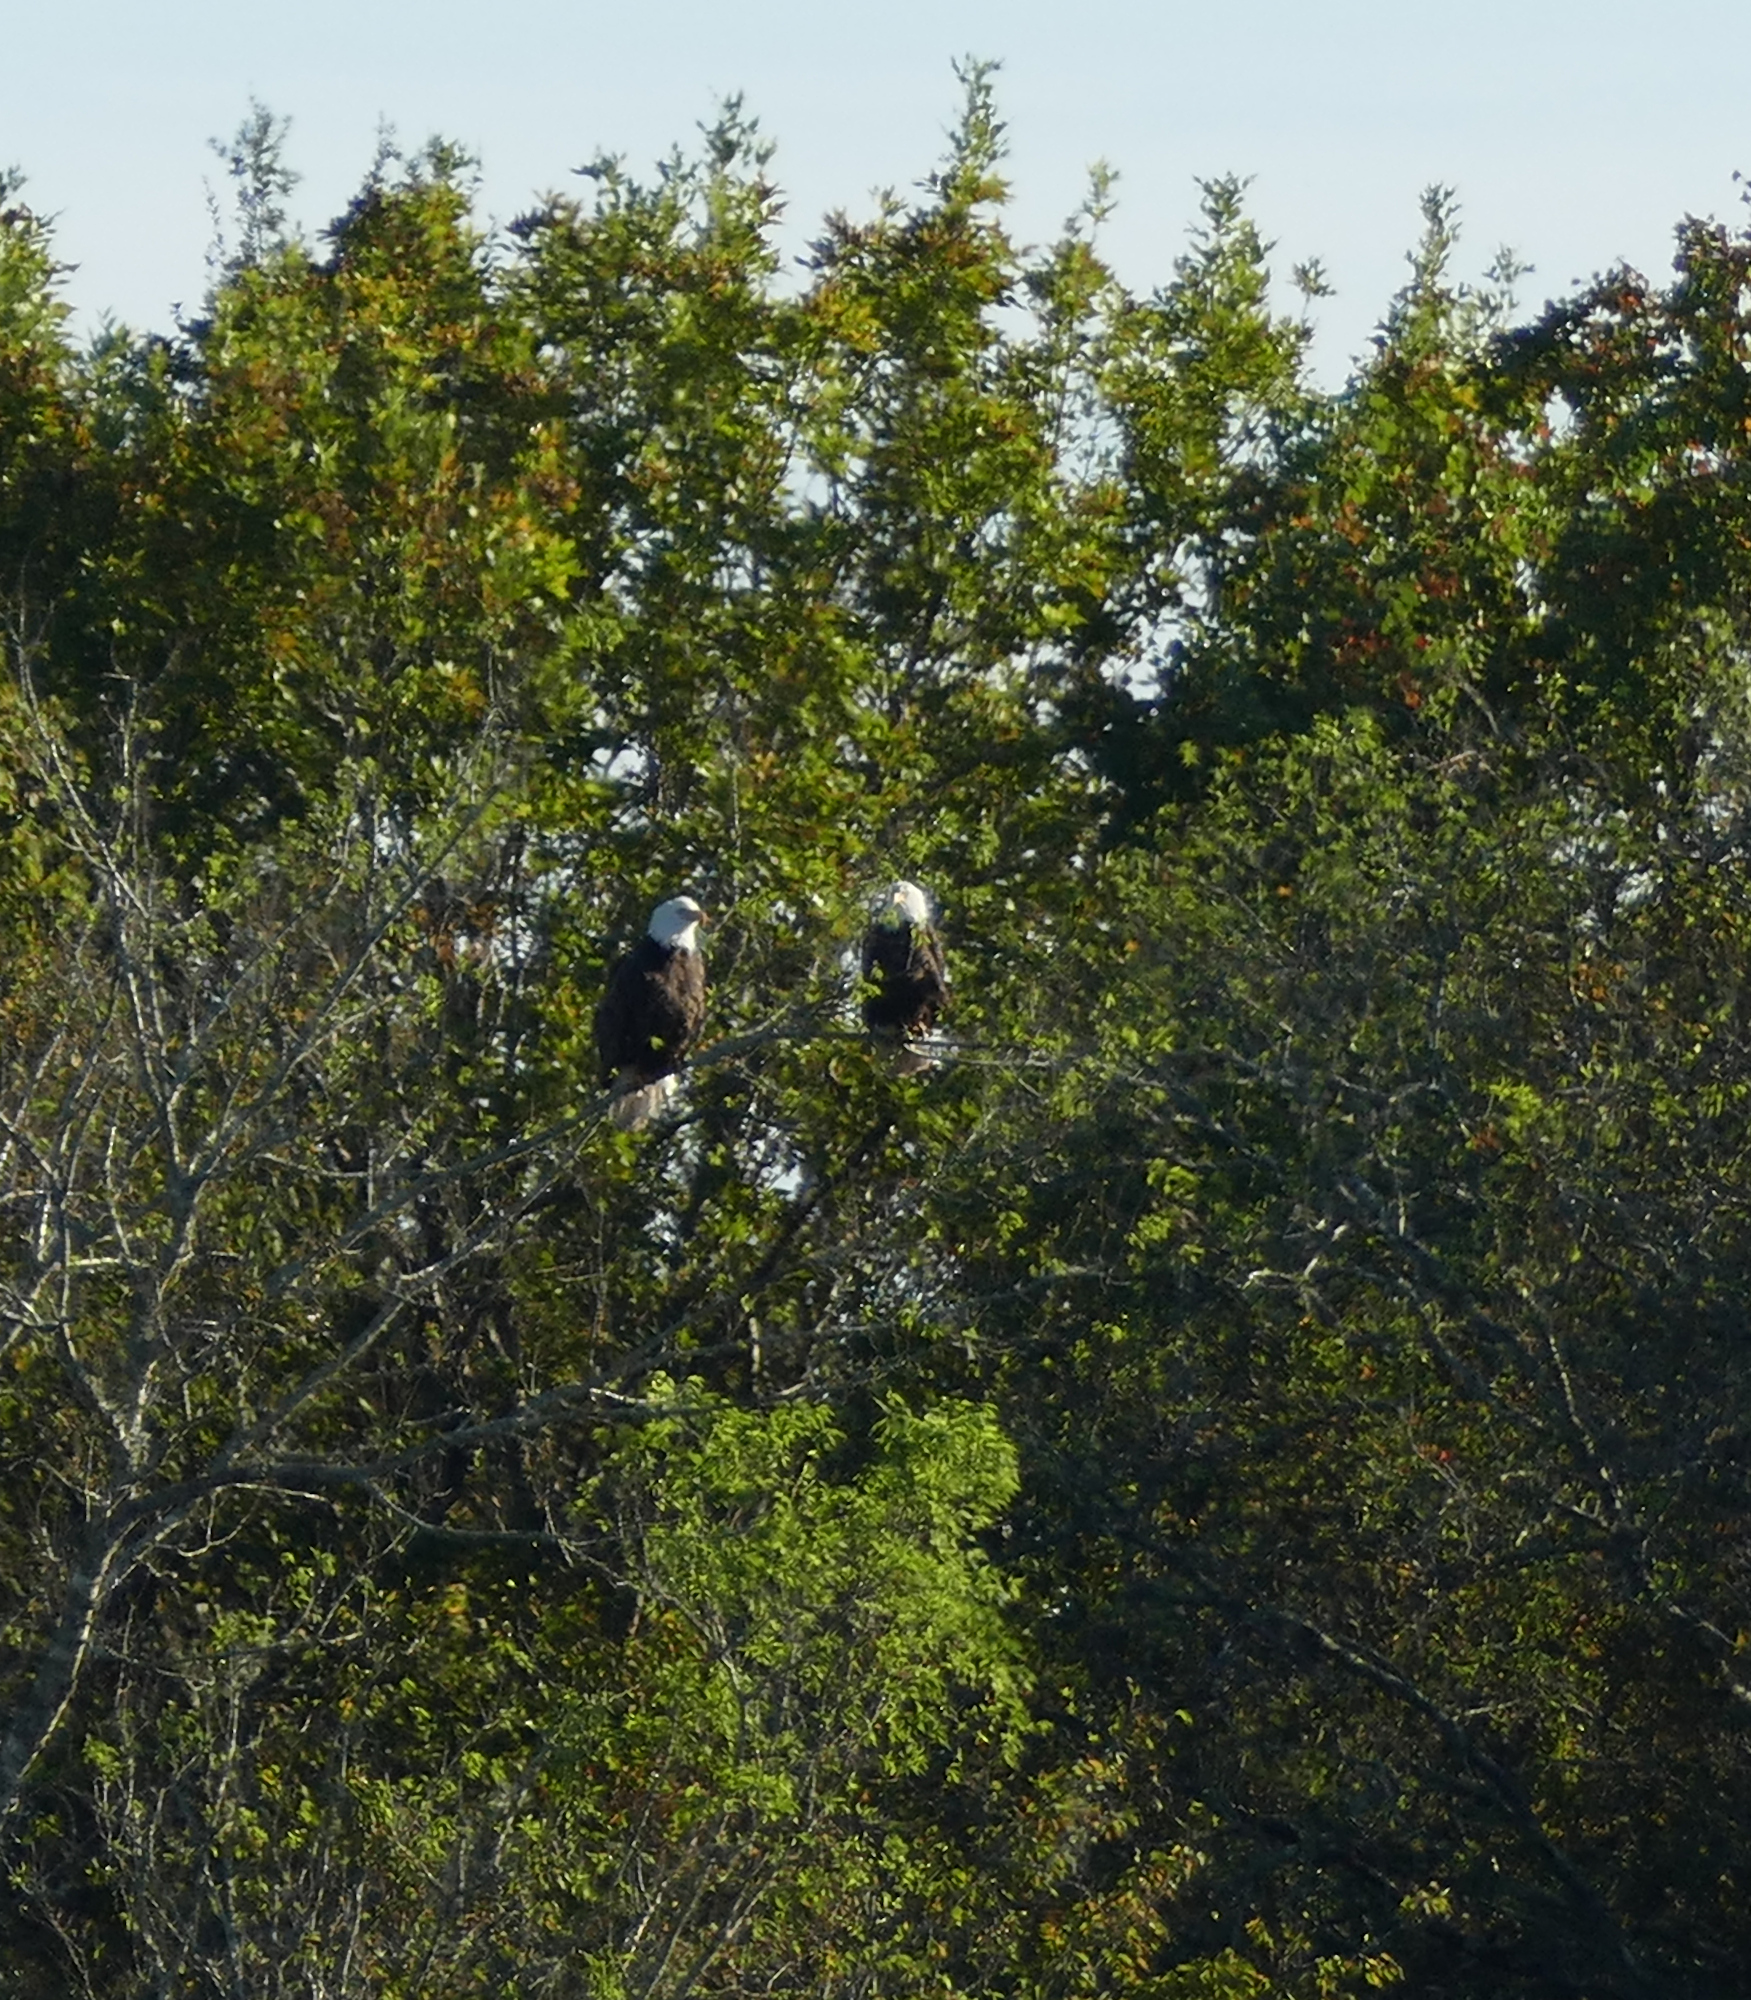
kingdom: Animalia
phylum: Chordata
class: Aves
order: Accipitriformes
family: Accipitridae
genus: Haliaeetus
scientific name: Haliaeetus leucocephalus
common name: Bald eagle
